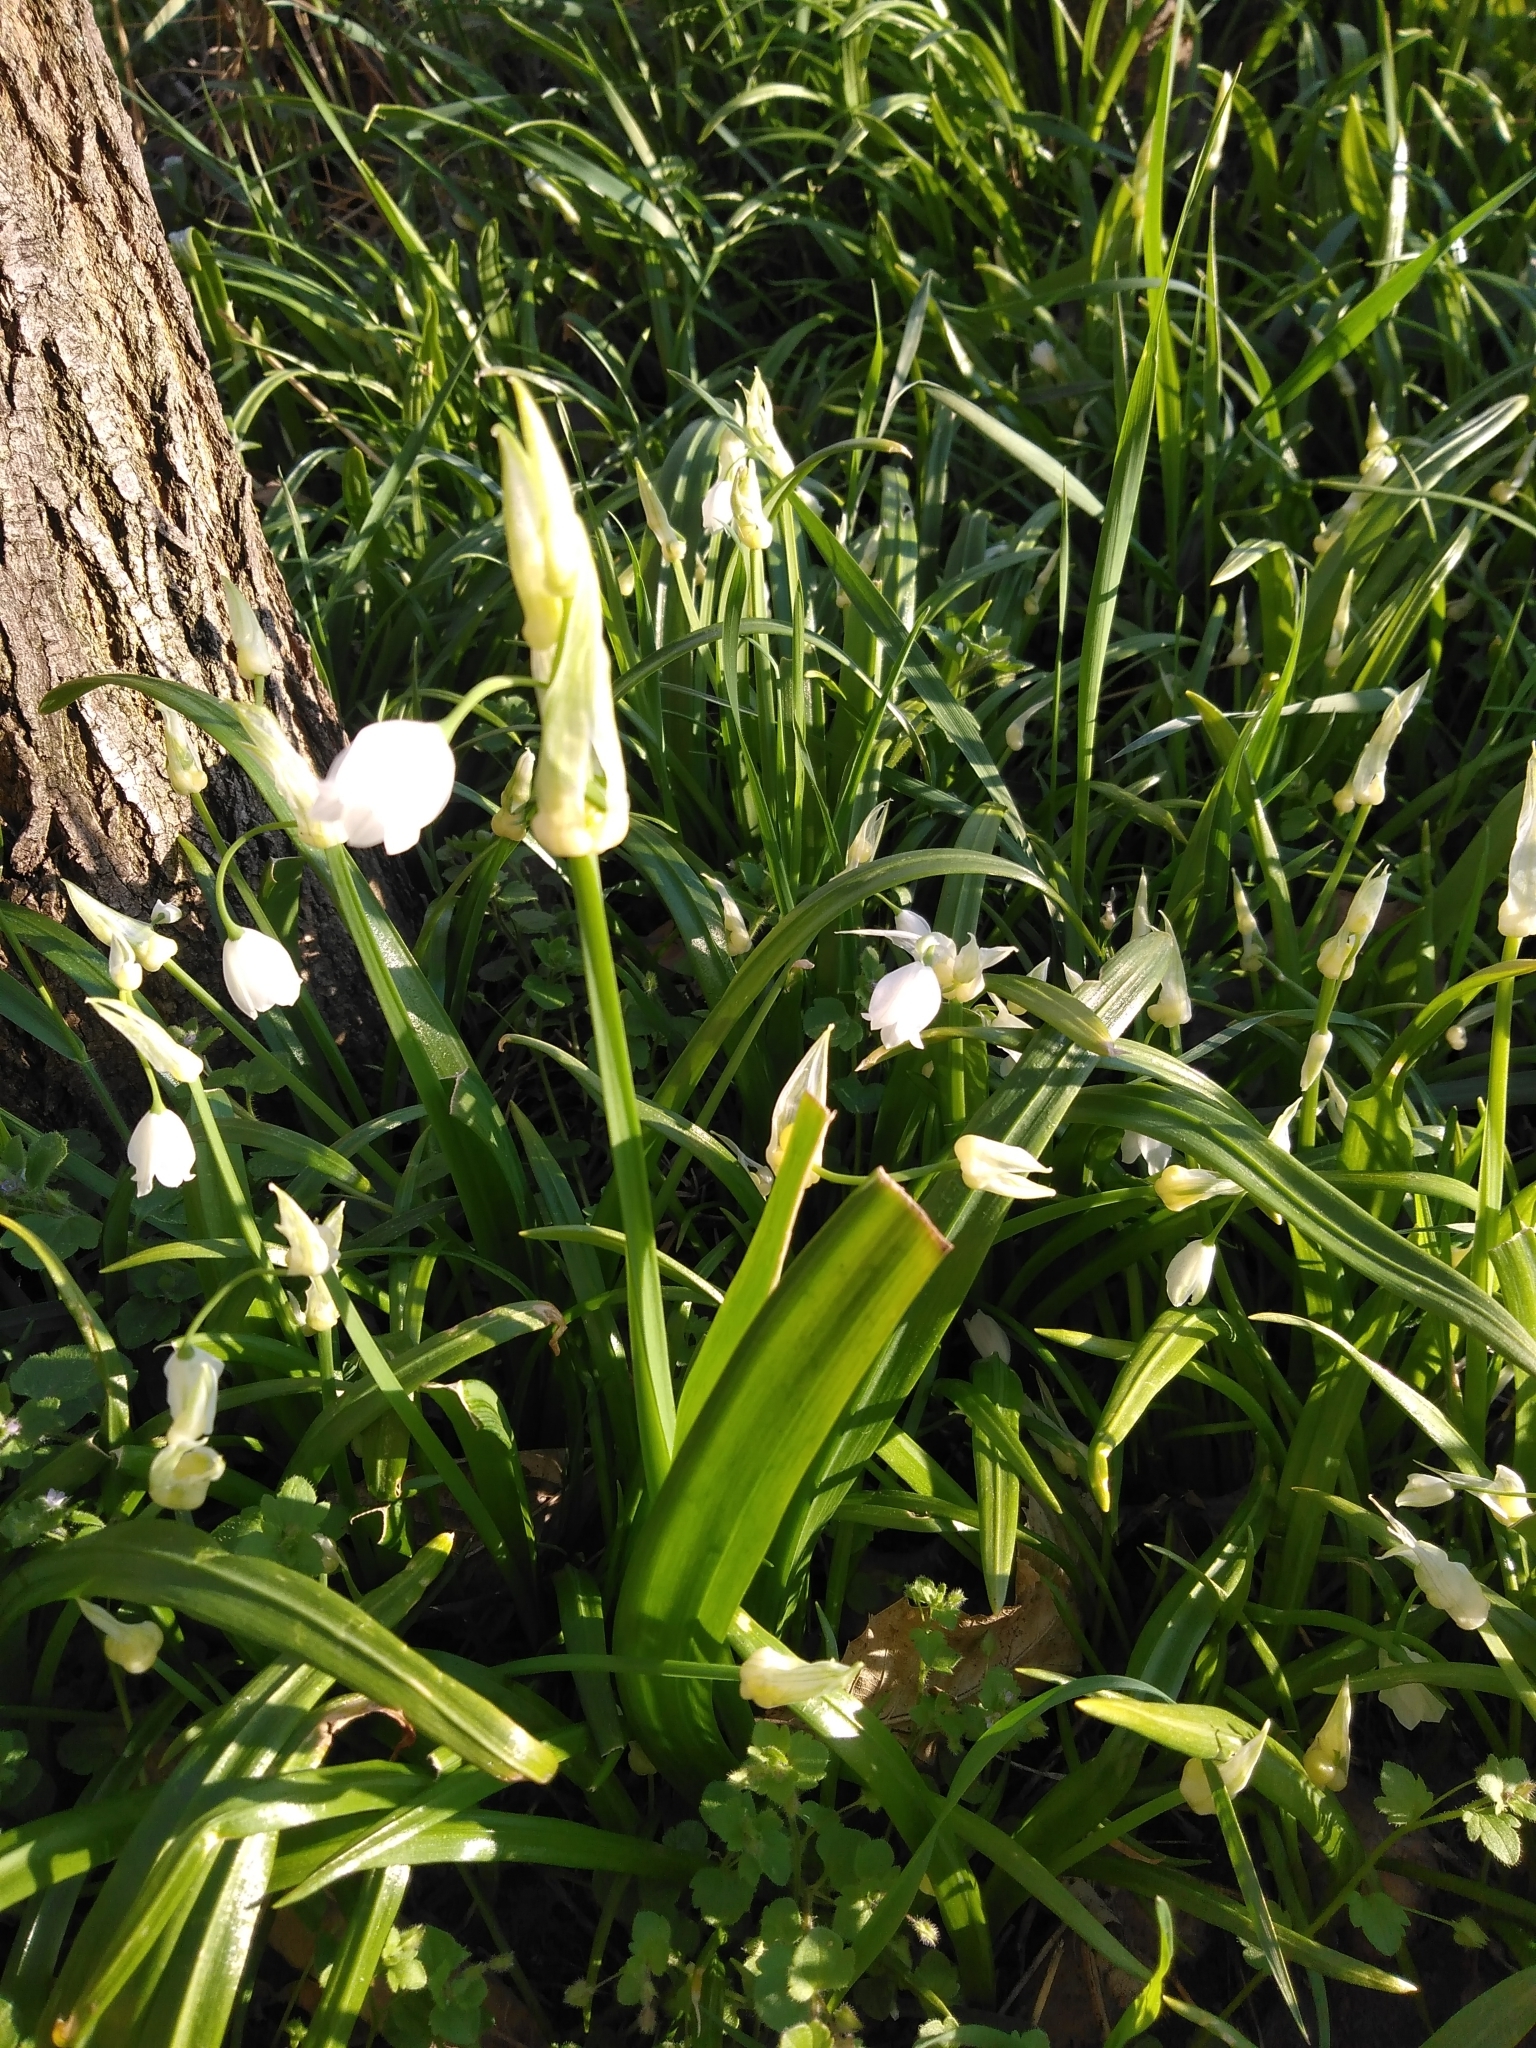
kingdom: Plantae
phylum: Tracheophyta
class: Liliopsida
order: Asparagales
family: Amaryllidaceae
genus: Allium
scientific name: Allium paradoxum
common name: Few-flowered garlic
